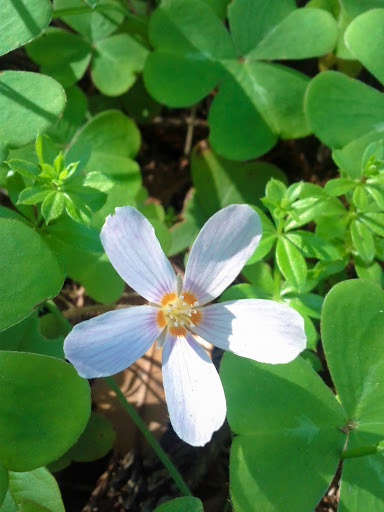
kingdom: Plantae
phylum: Tracheophyta
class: Magnoliopsida
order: Oxalidales
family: Oxalidaceae
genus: Oxalis
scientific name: Oxalis oregana
